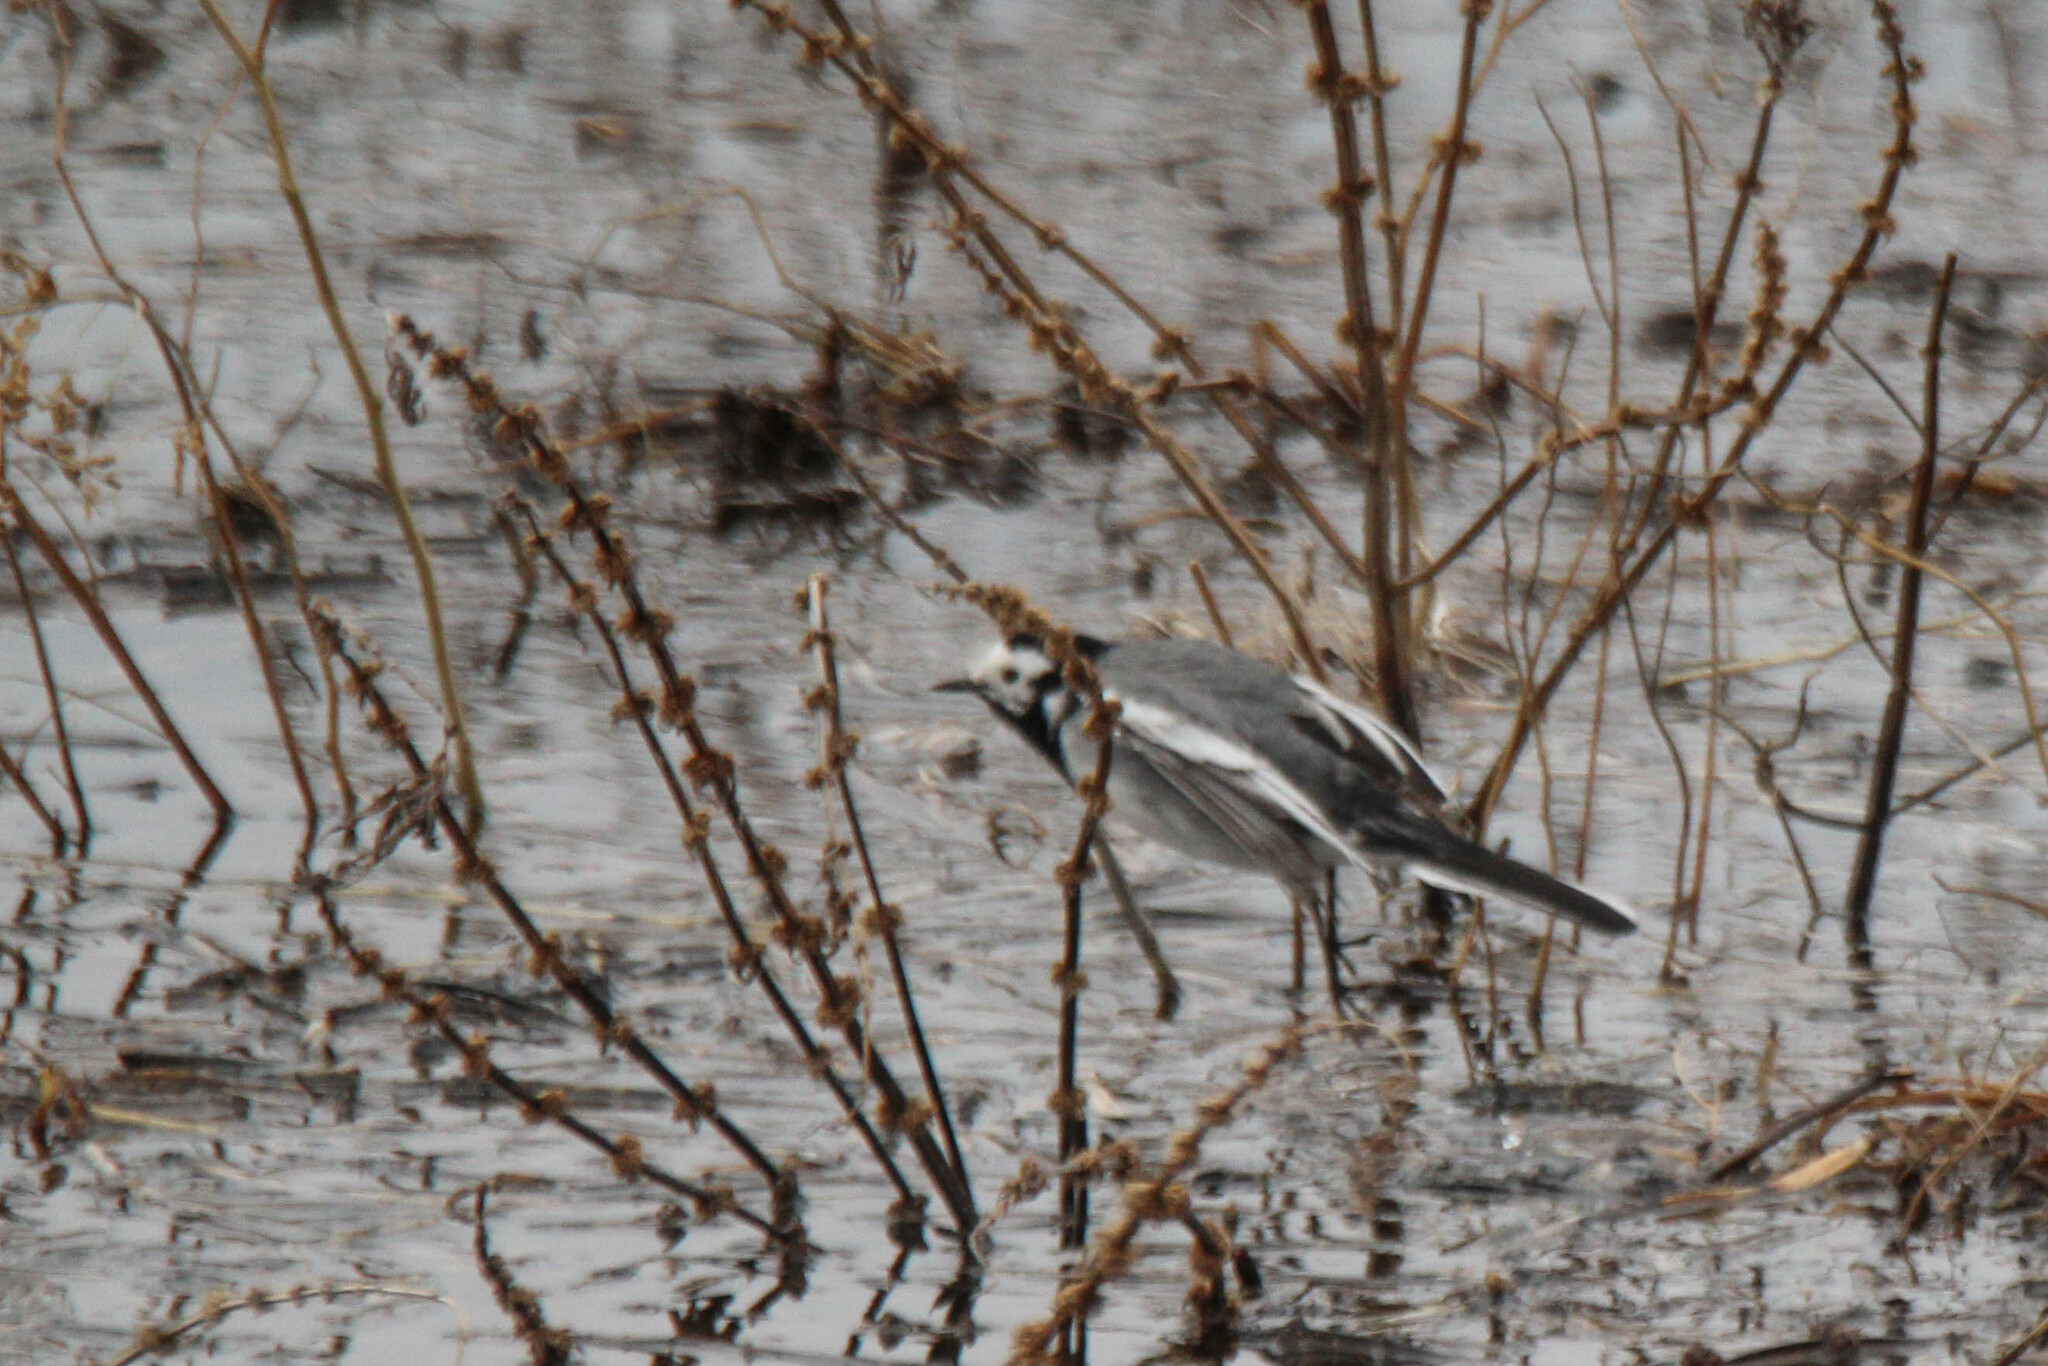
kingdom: Animalia
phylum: Chordata
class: Aves
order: Passeriformes
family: Motacillidae
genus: Motacilla
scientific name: Motacilla alba
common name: White wagtail
